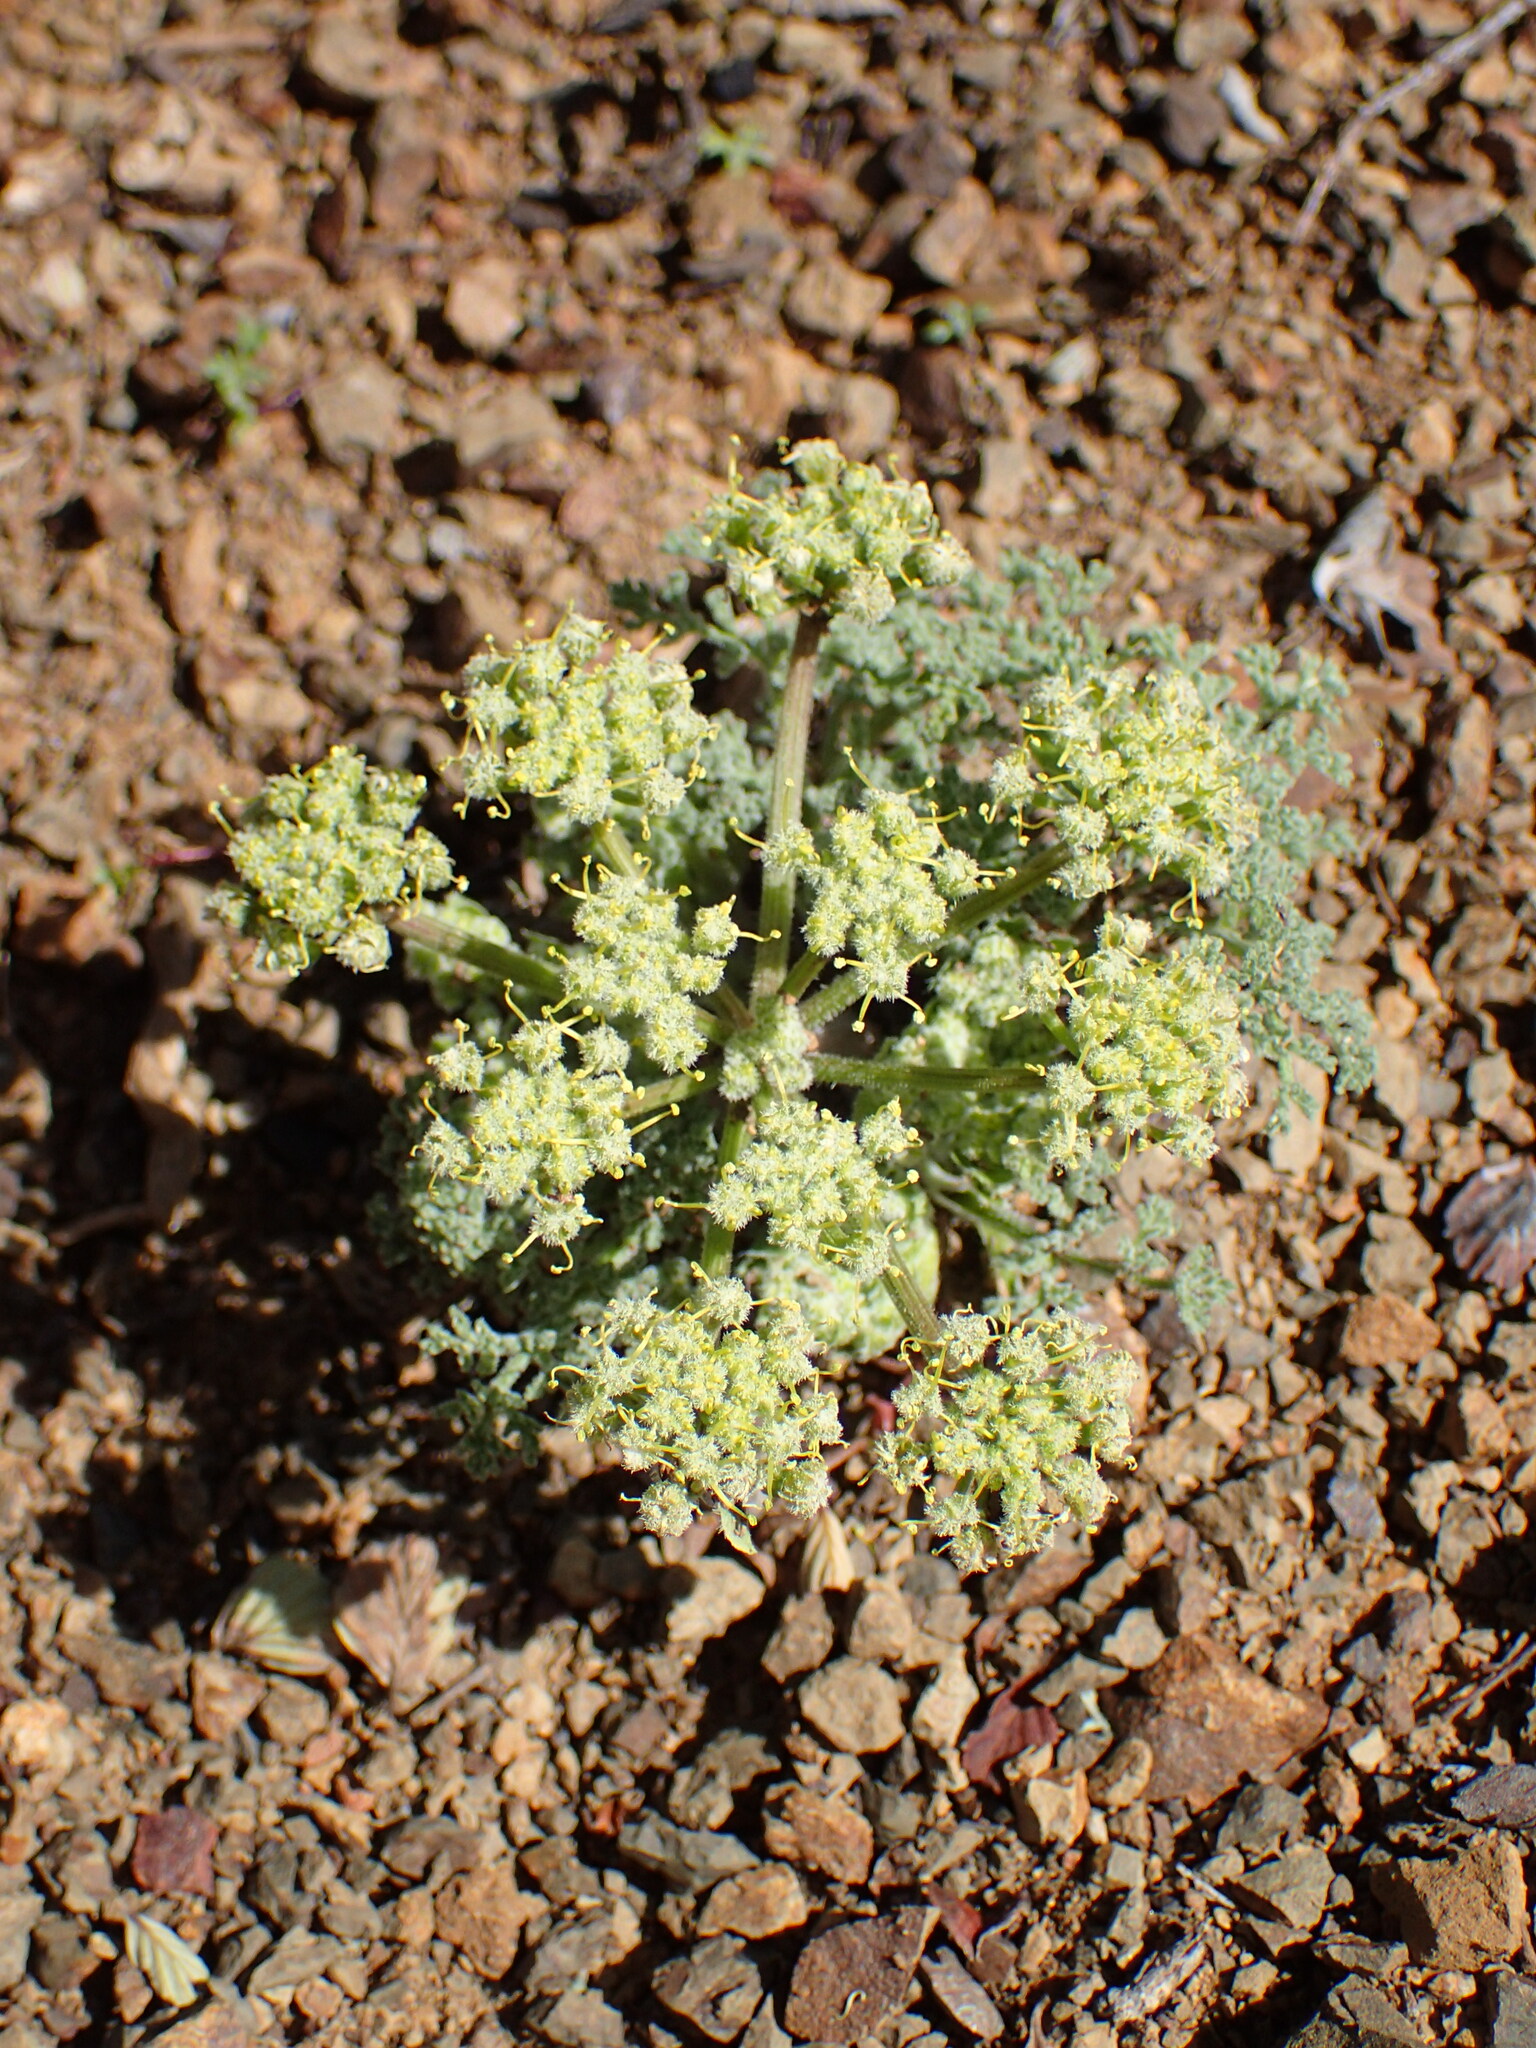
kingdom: Plantae
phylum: Tracheophyta
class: Magnoliopsida
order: Apiales
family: Apiaceae
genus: Lomatium
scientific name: Lomatium dasycarpum
